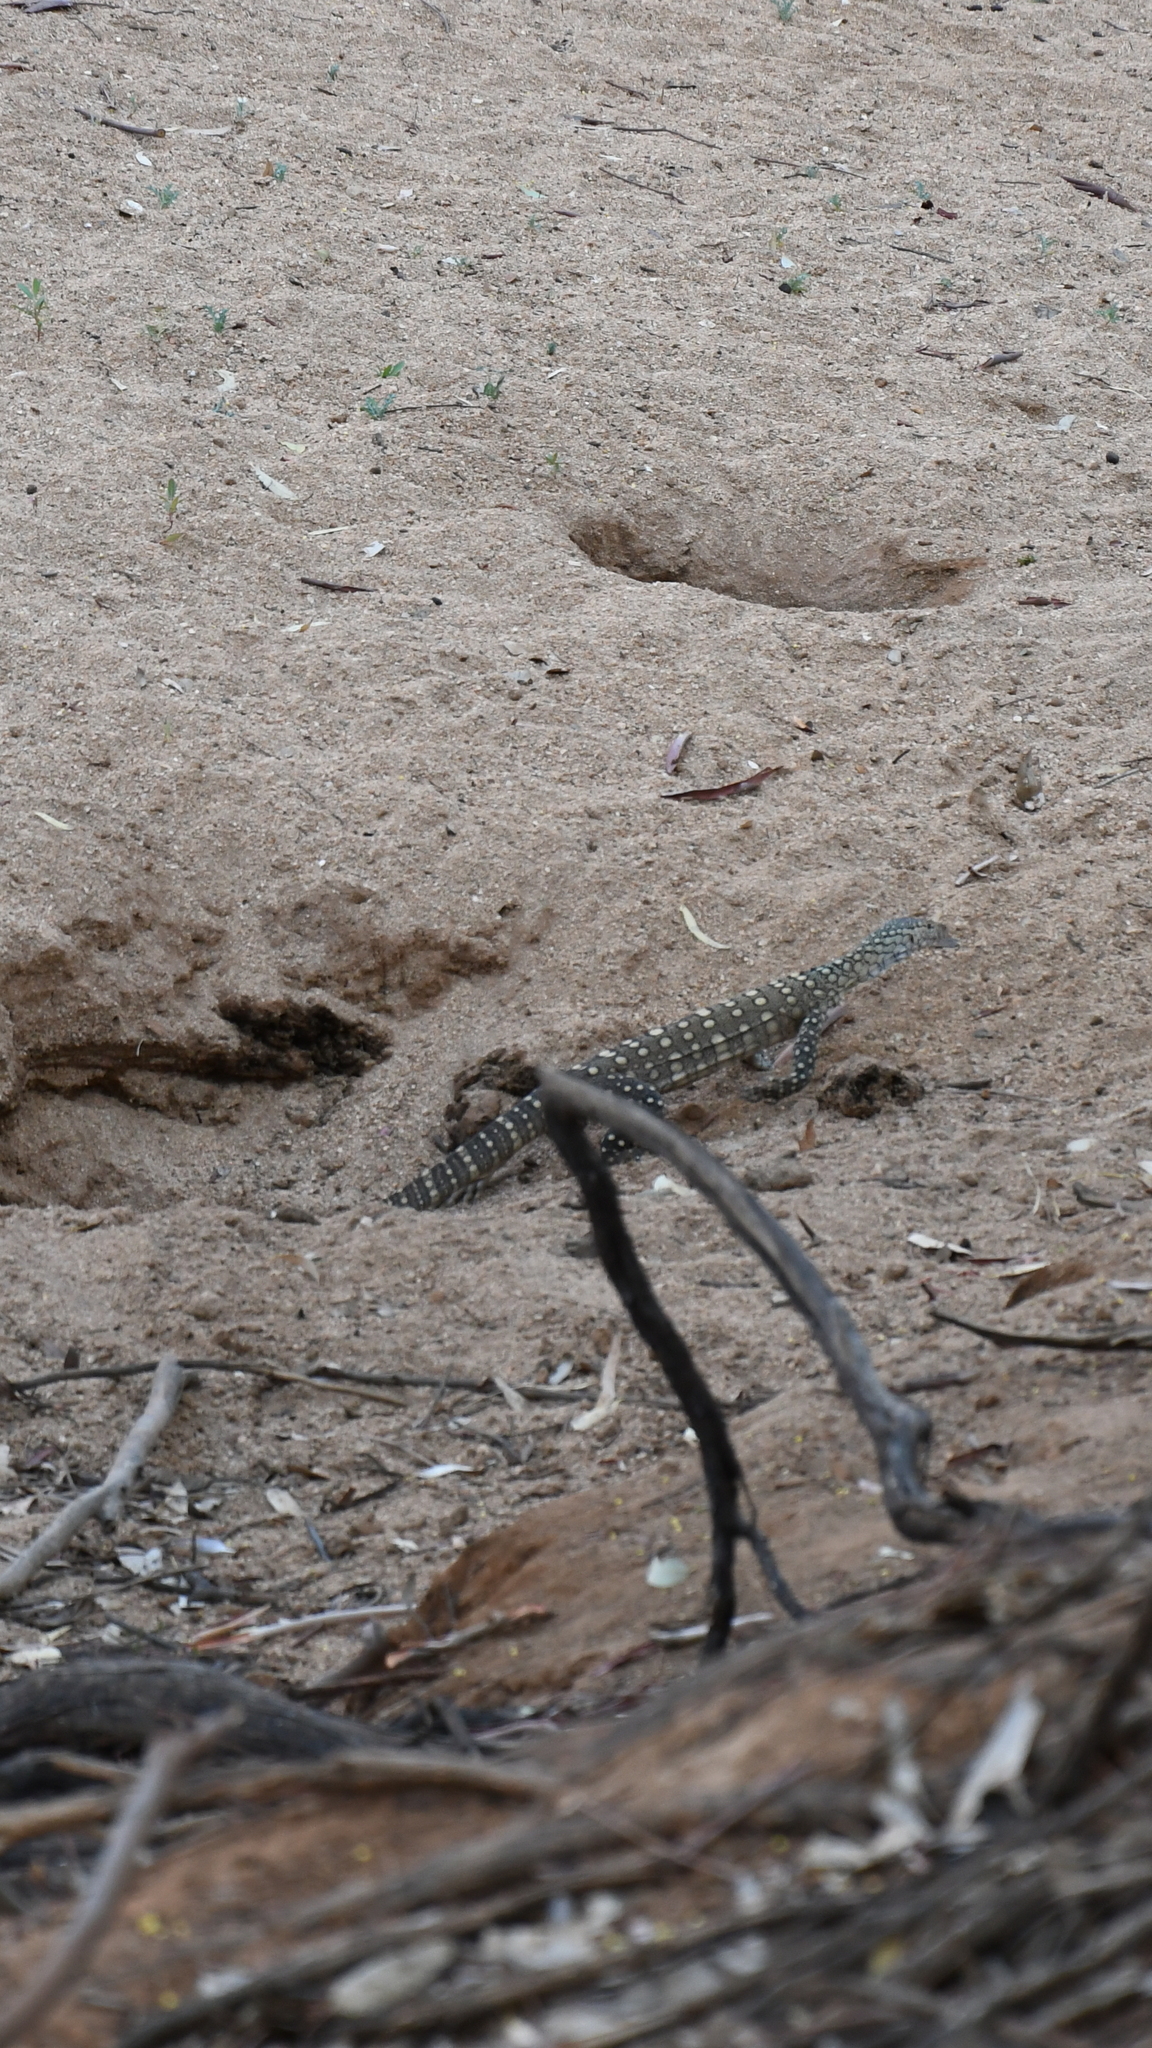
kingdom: Animalia
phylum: Chordata
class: Squamata
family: Varanidae
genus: Varanus
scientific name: Varanus giganteus
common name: Perentie
